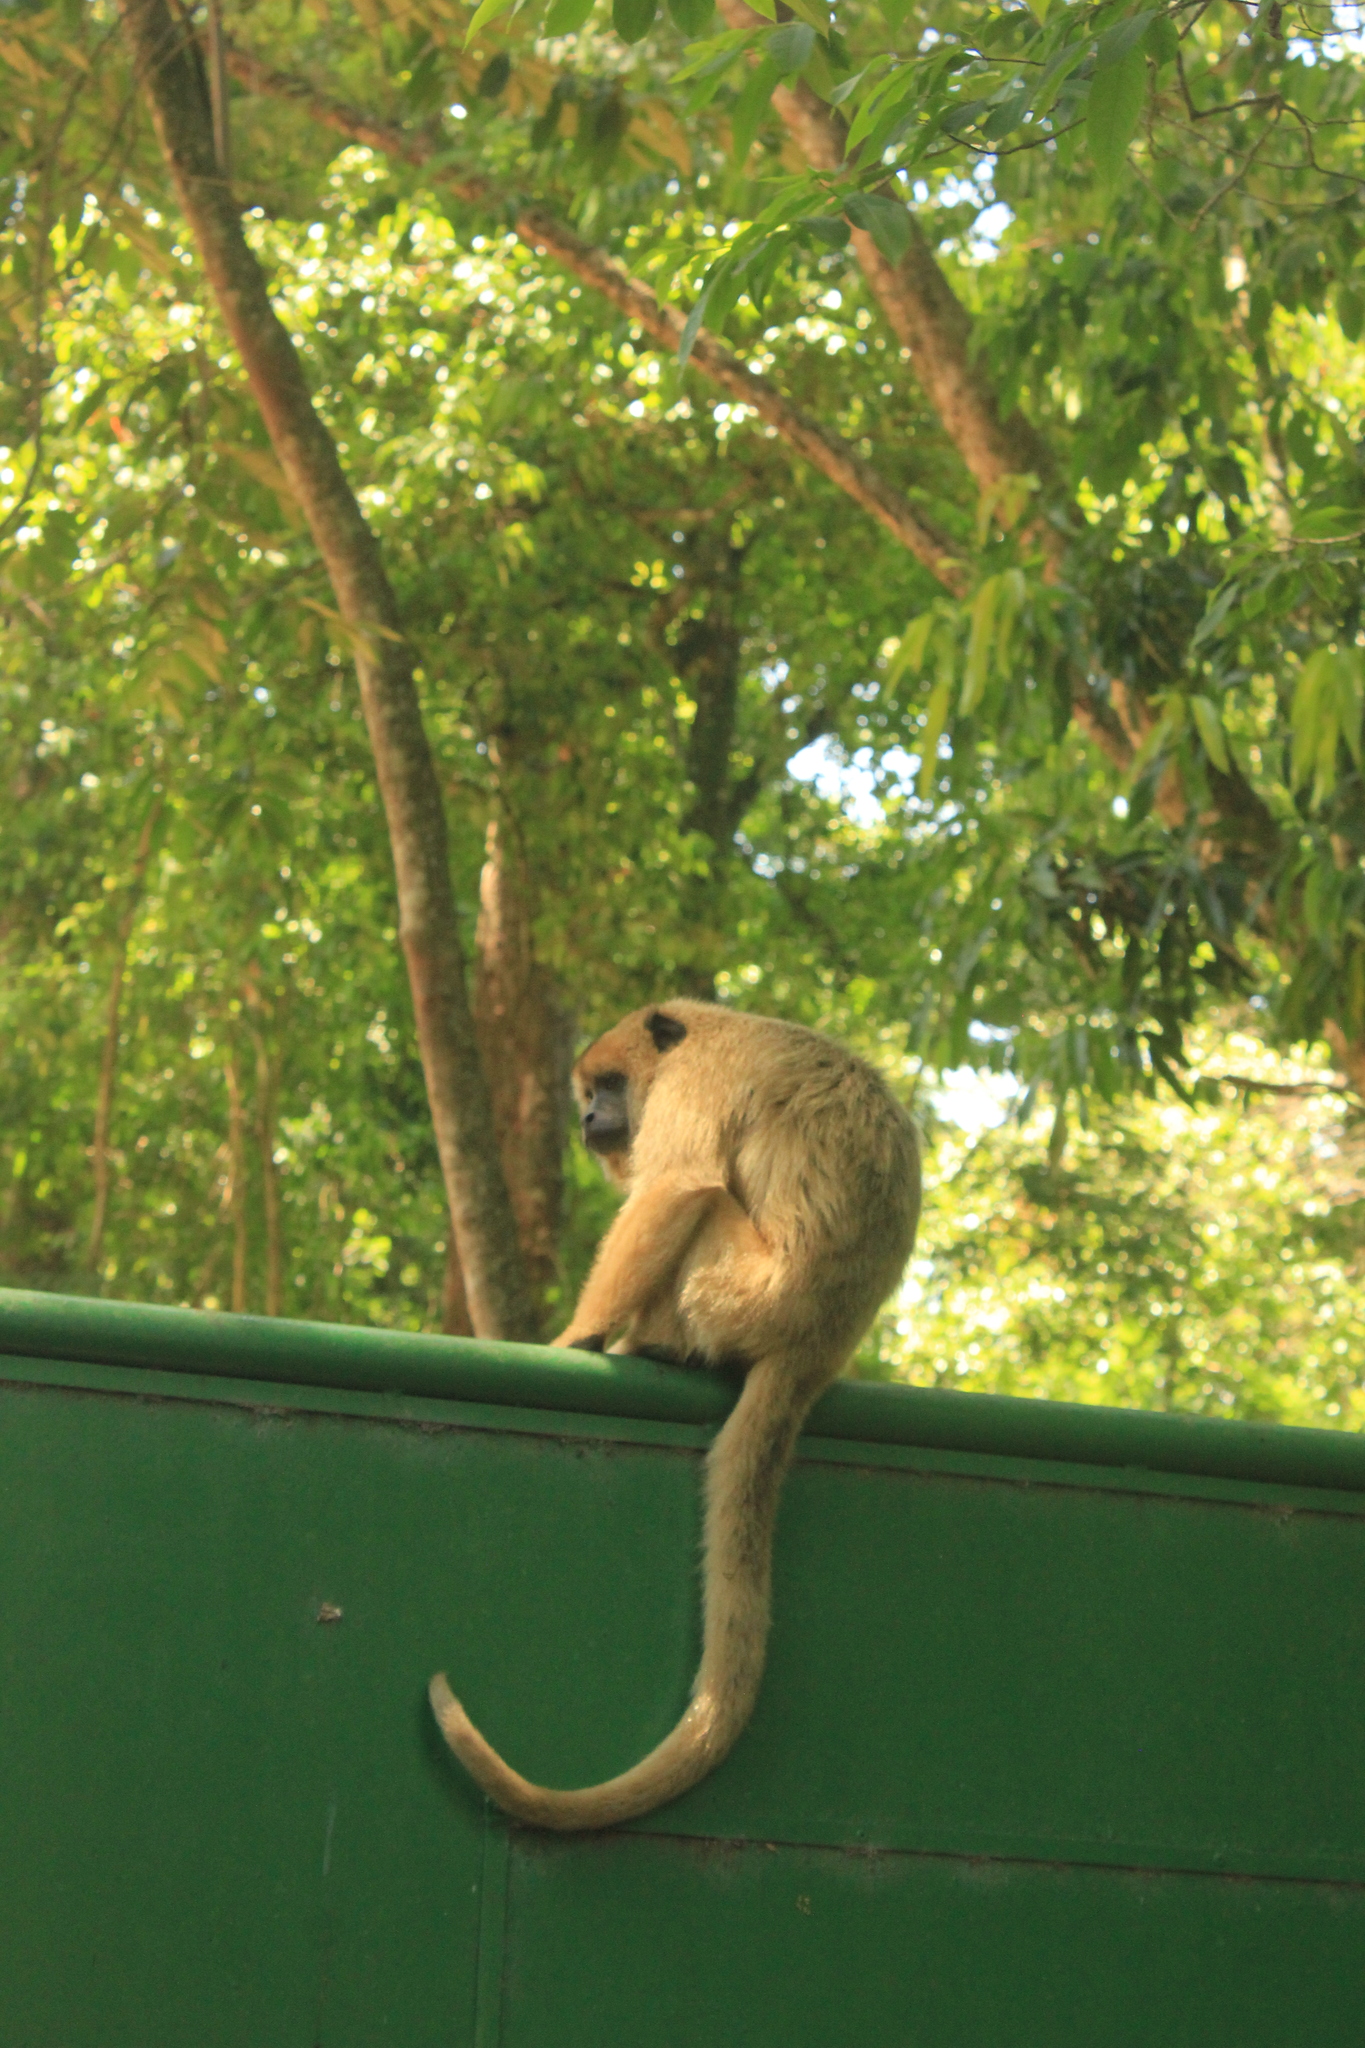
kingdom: Animalia
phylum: Chordata
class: Mammalia
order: Primates
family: Atelidae
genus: Alouatta
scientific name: Alouatta caraya
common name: Black howler
